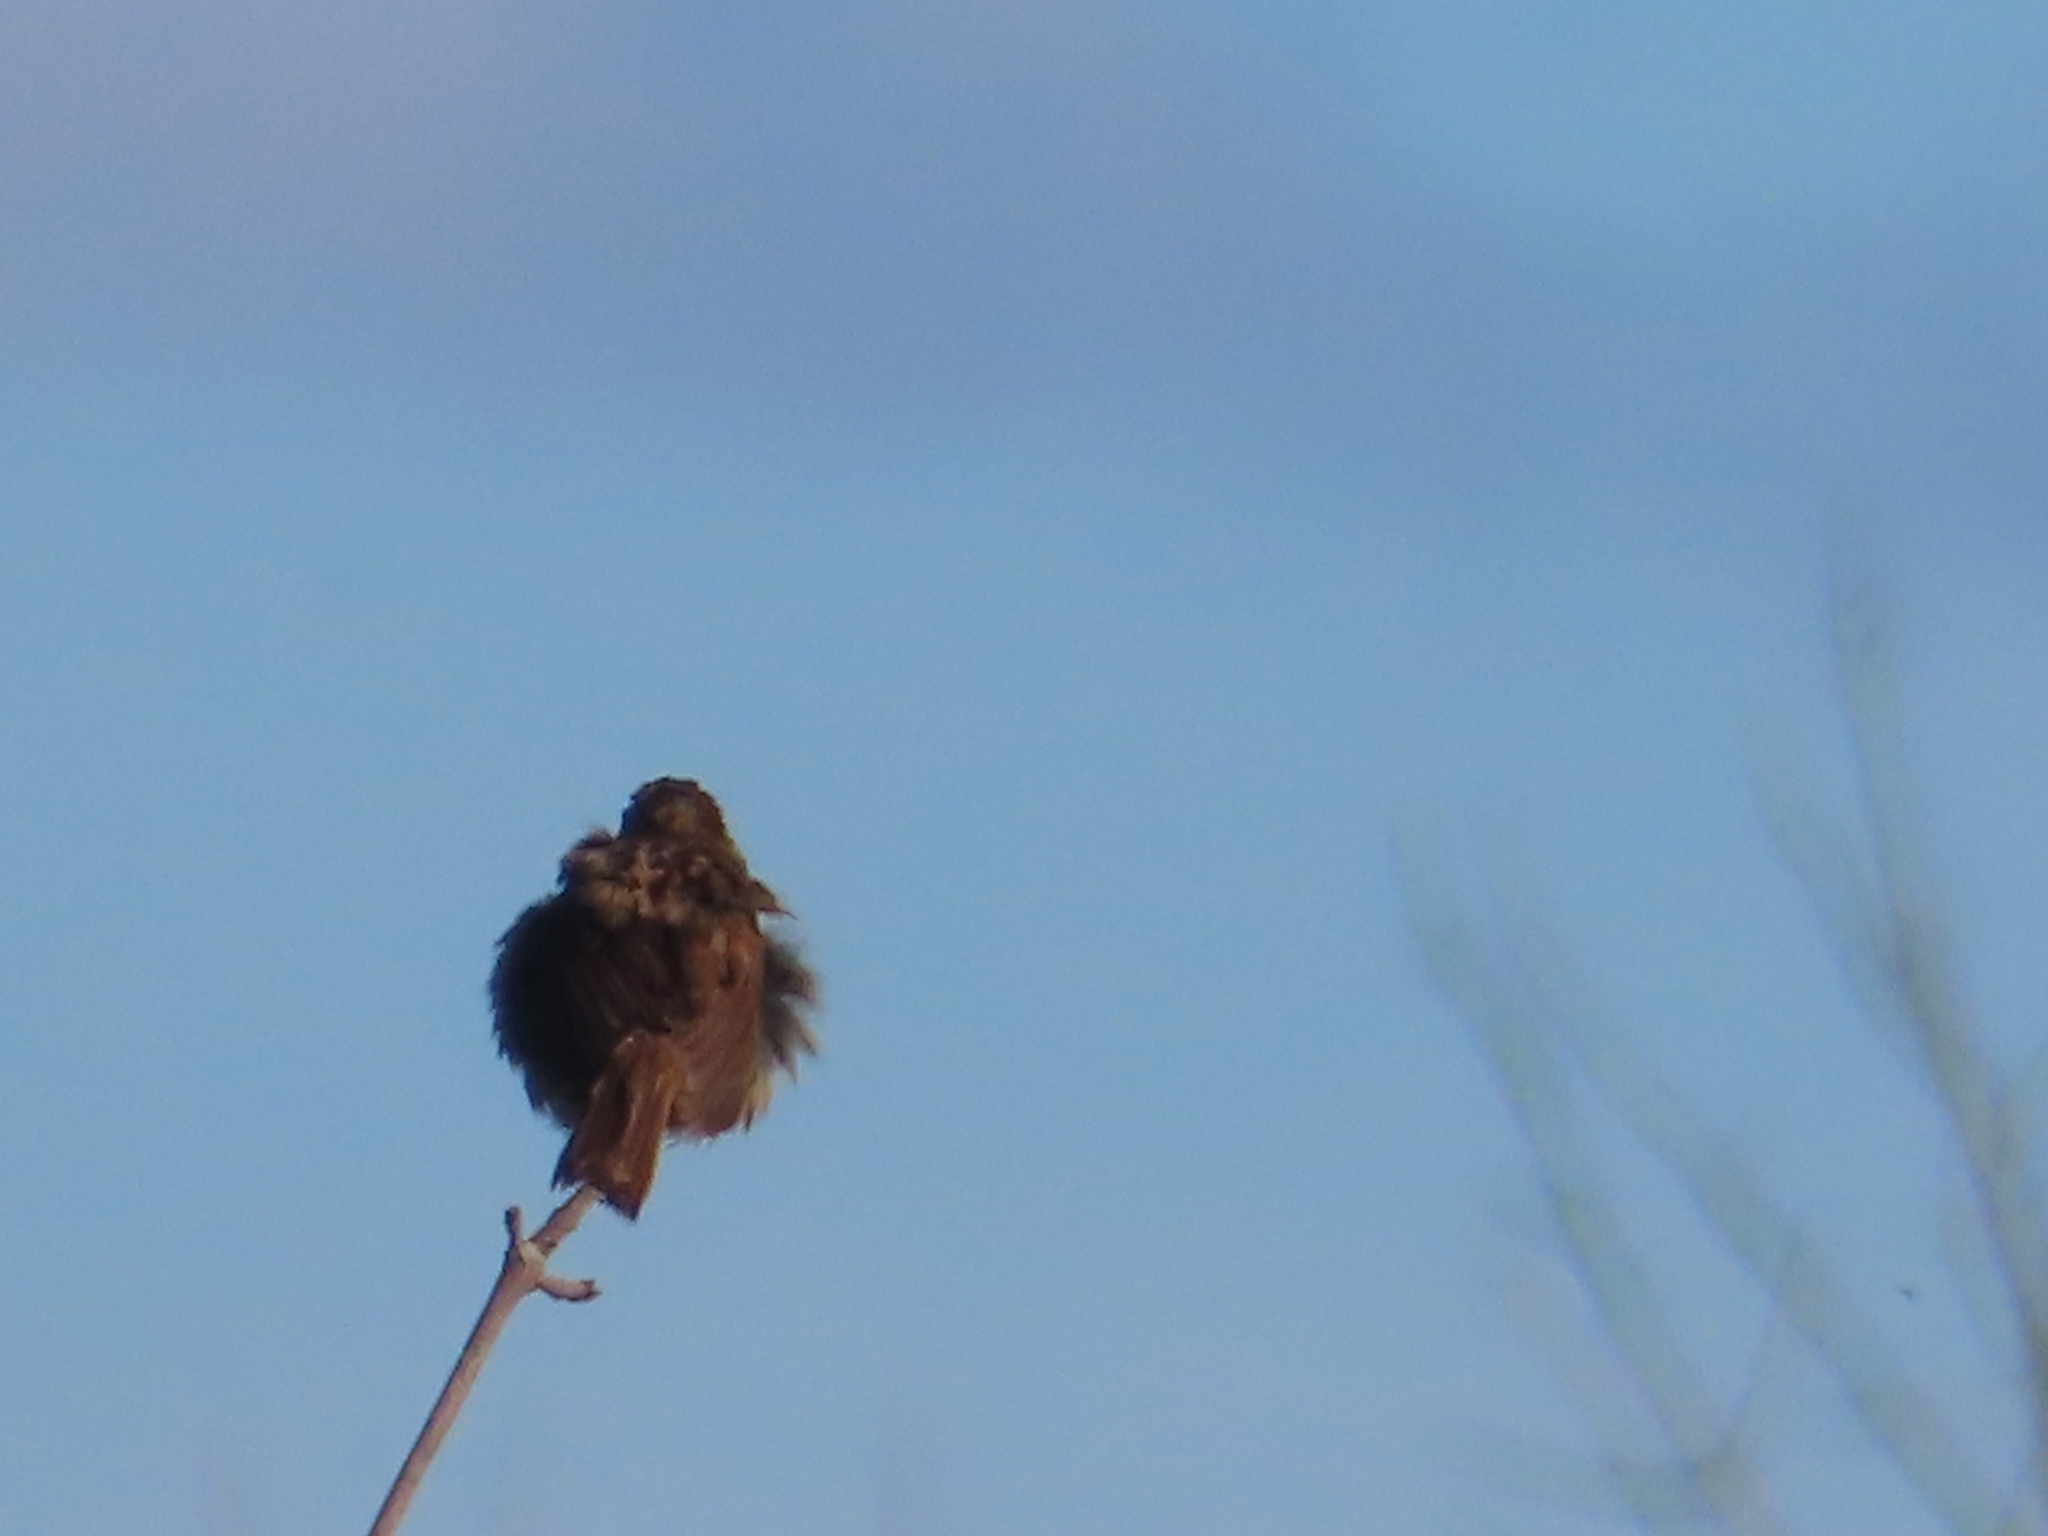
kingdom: Animalia
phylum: Chordata
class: Aves
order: Passeriformes
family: Passerellidae
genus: Melospiza
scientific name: Melospiza melodia
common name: Song sparrow
